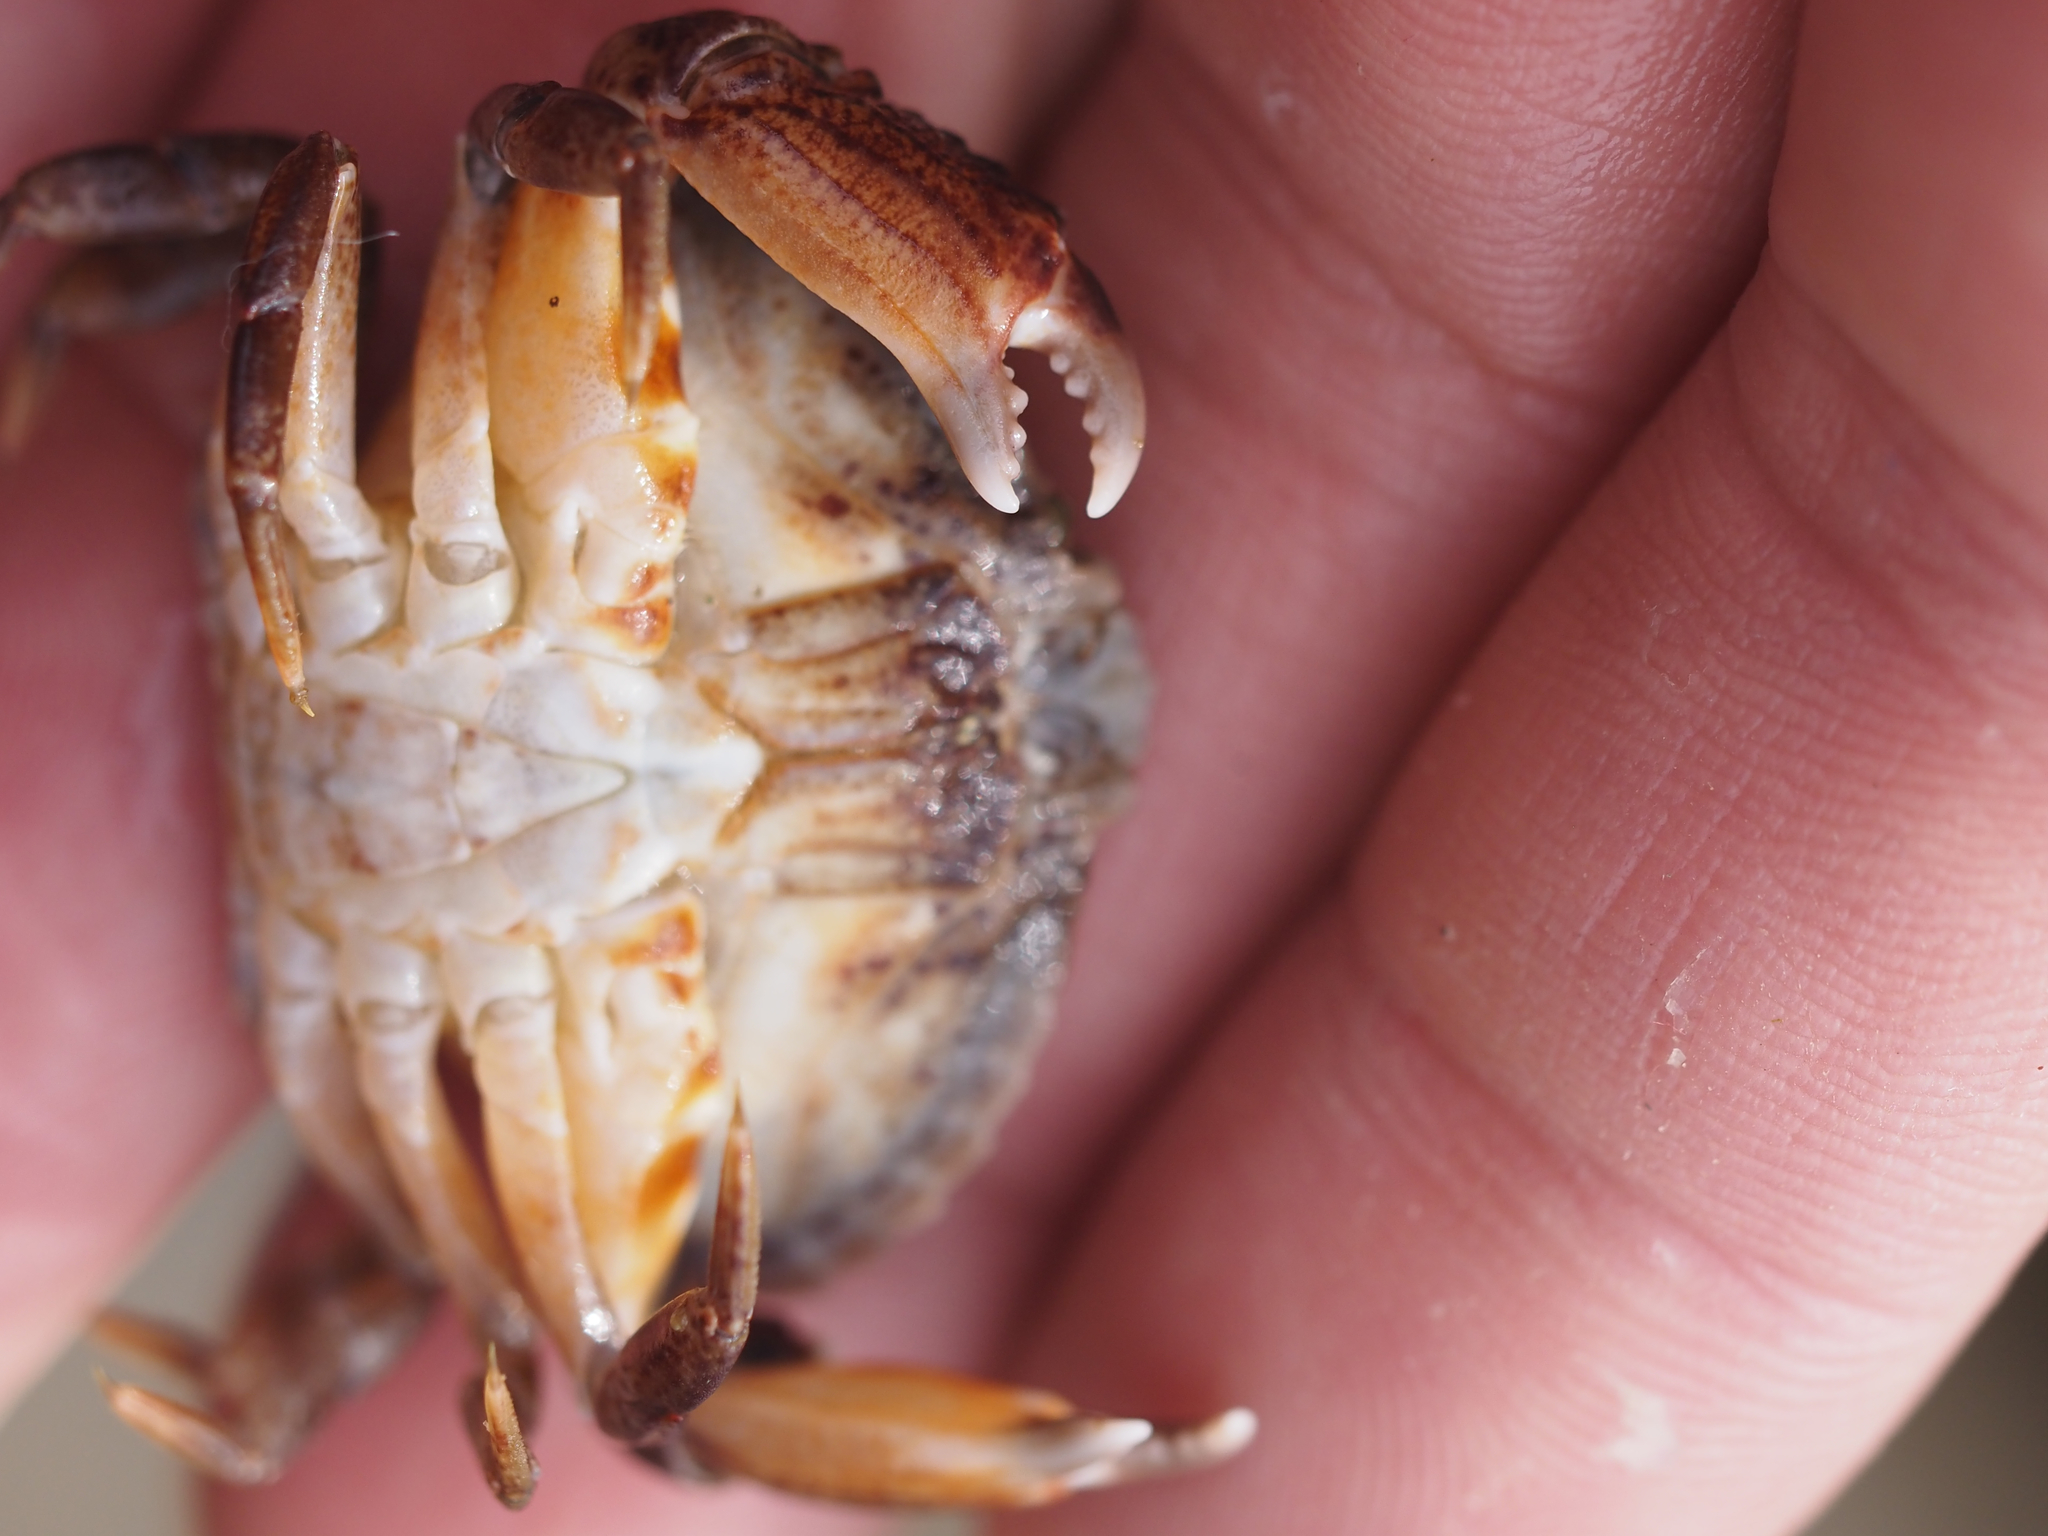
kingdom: Animalia
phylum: Arthropoda
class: Malacostraca
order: Decapoda
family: Cancridae
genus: Cancer
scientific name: Cancer productus
